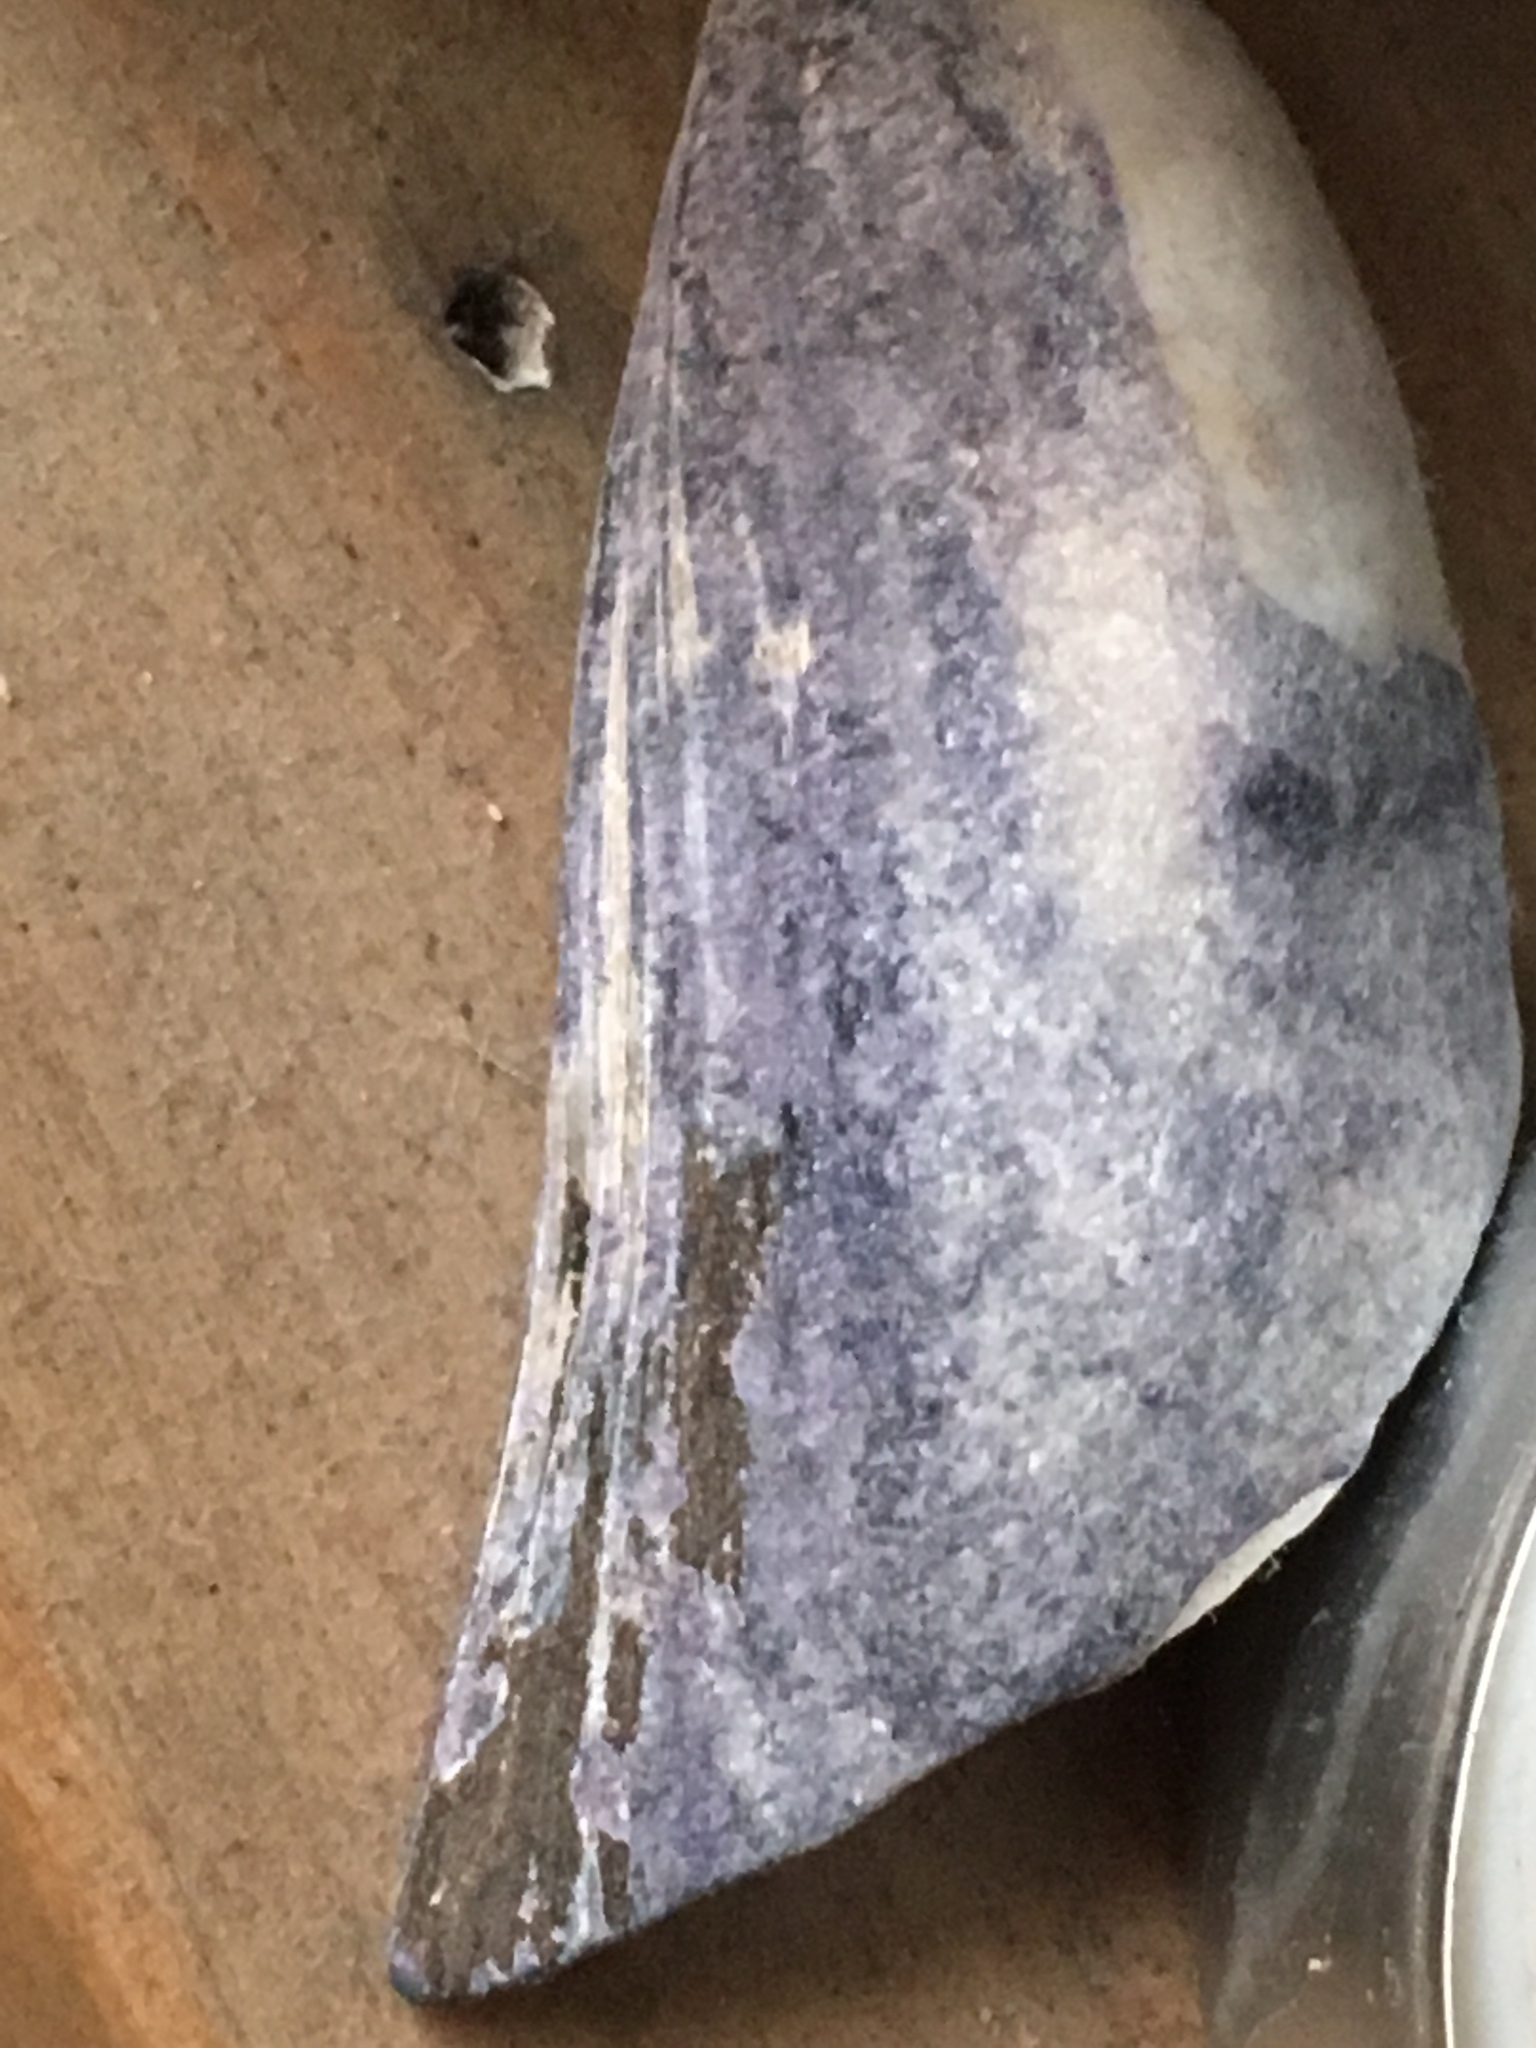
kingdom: Animalia
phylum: Mollusca
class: Bivalvia
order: Mytilida
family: Mytilidae
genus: Mytilus
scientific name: Mytilus edulis
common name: Blue mussel
